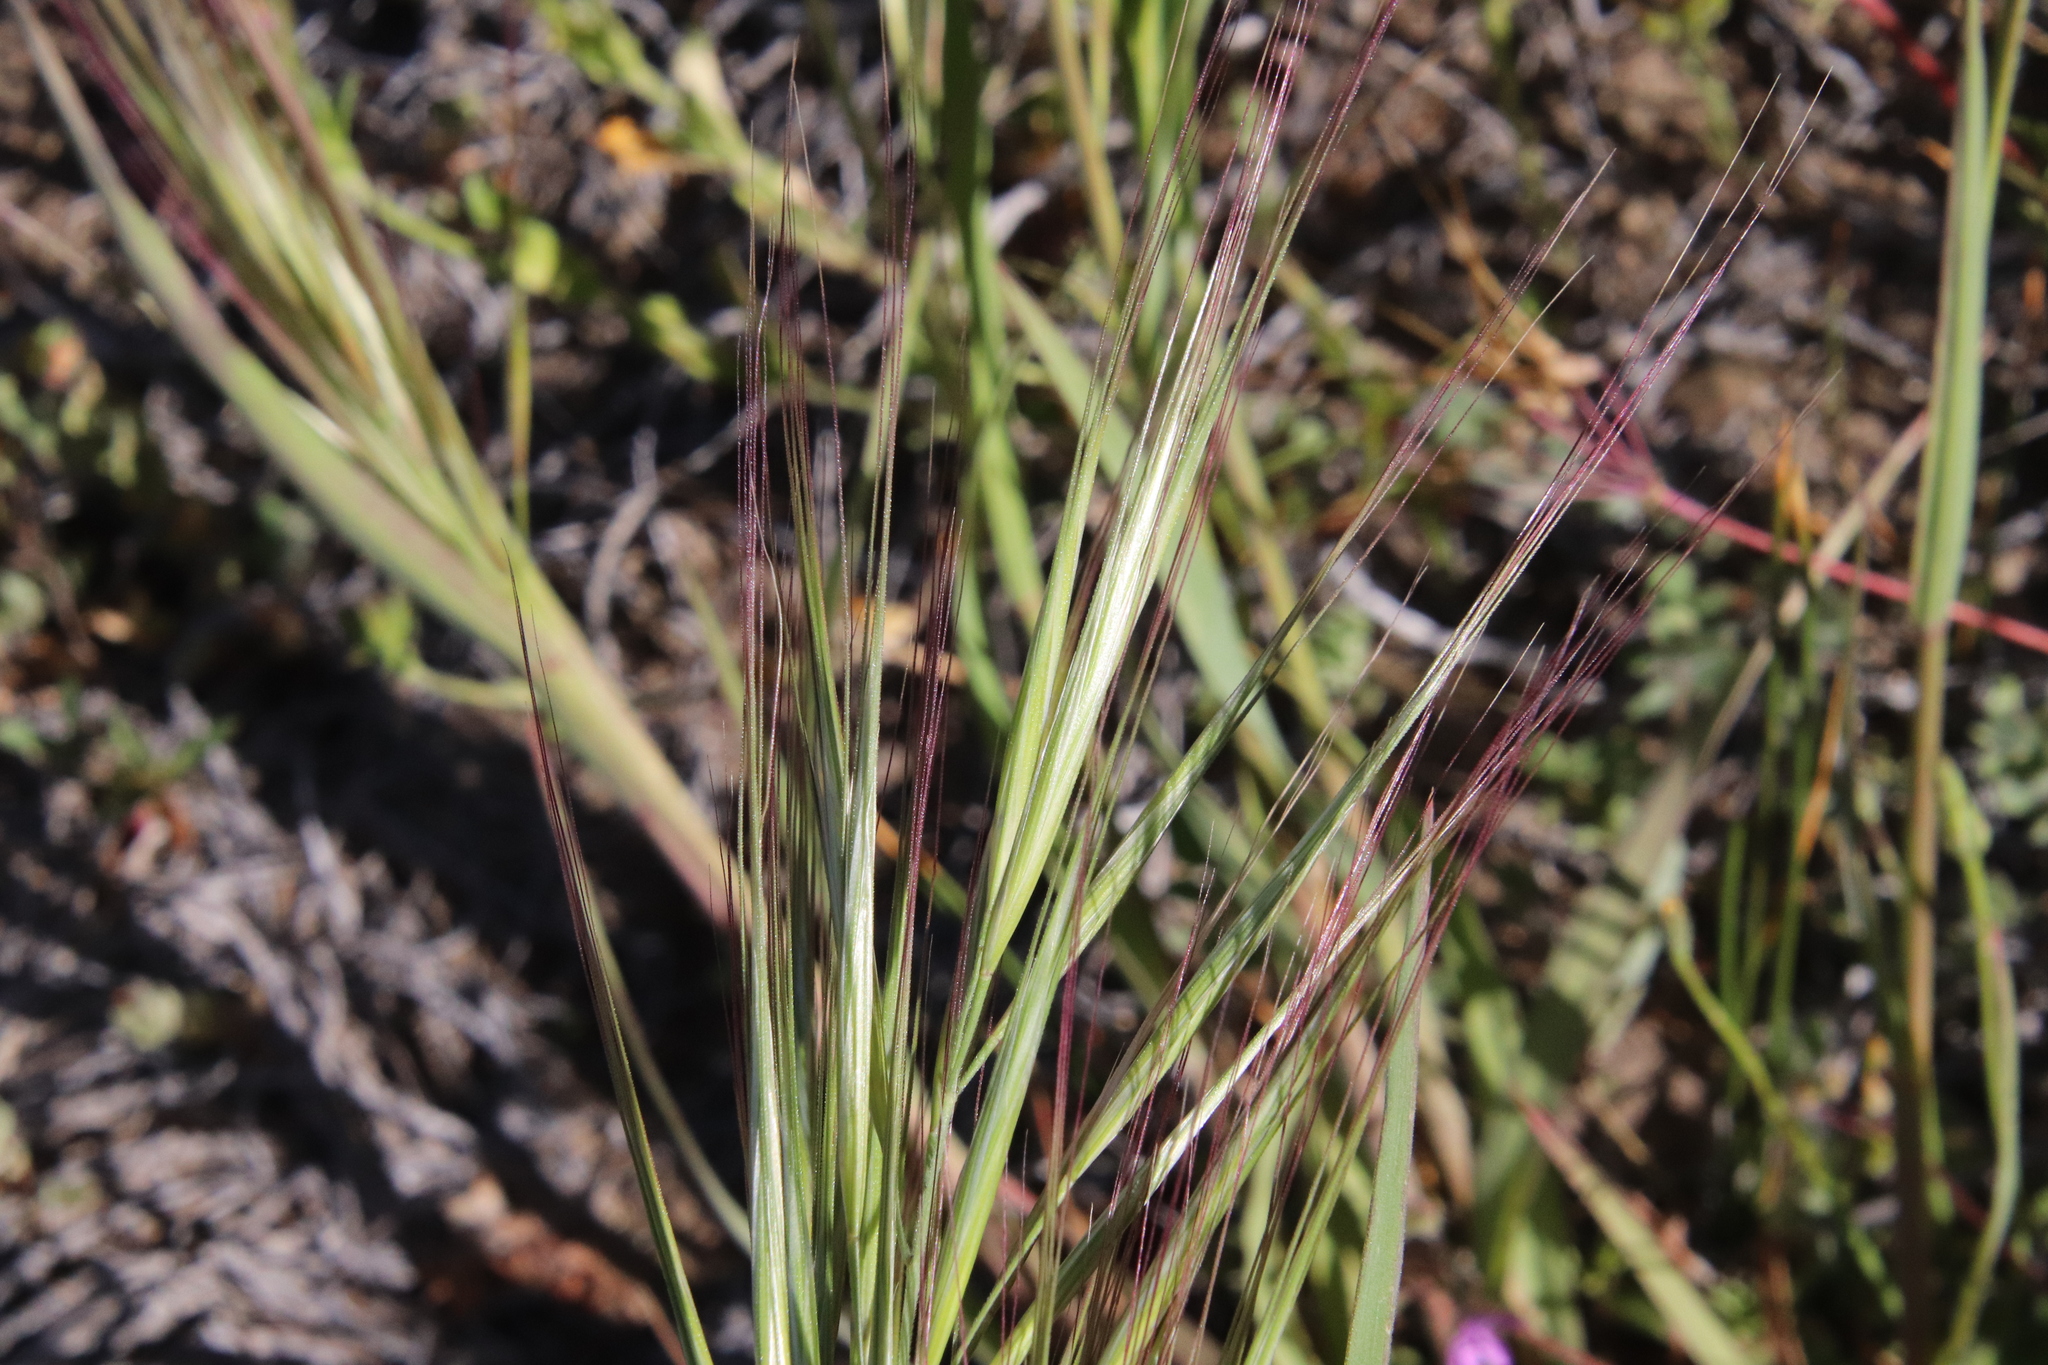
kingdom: Plantae
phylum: Tracheophyta
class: Liliopsida
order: Poales
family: Poaceae
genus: Bromus
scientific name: Bromus diandrus
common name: Ripgut brome
